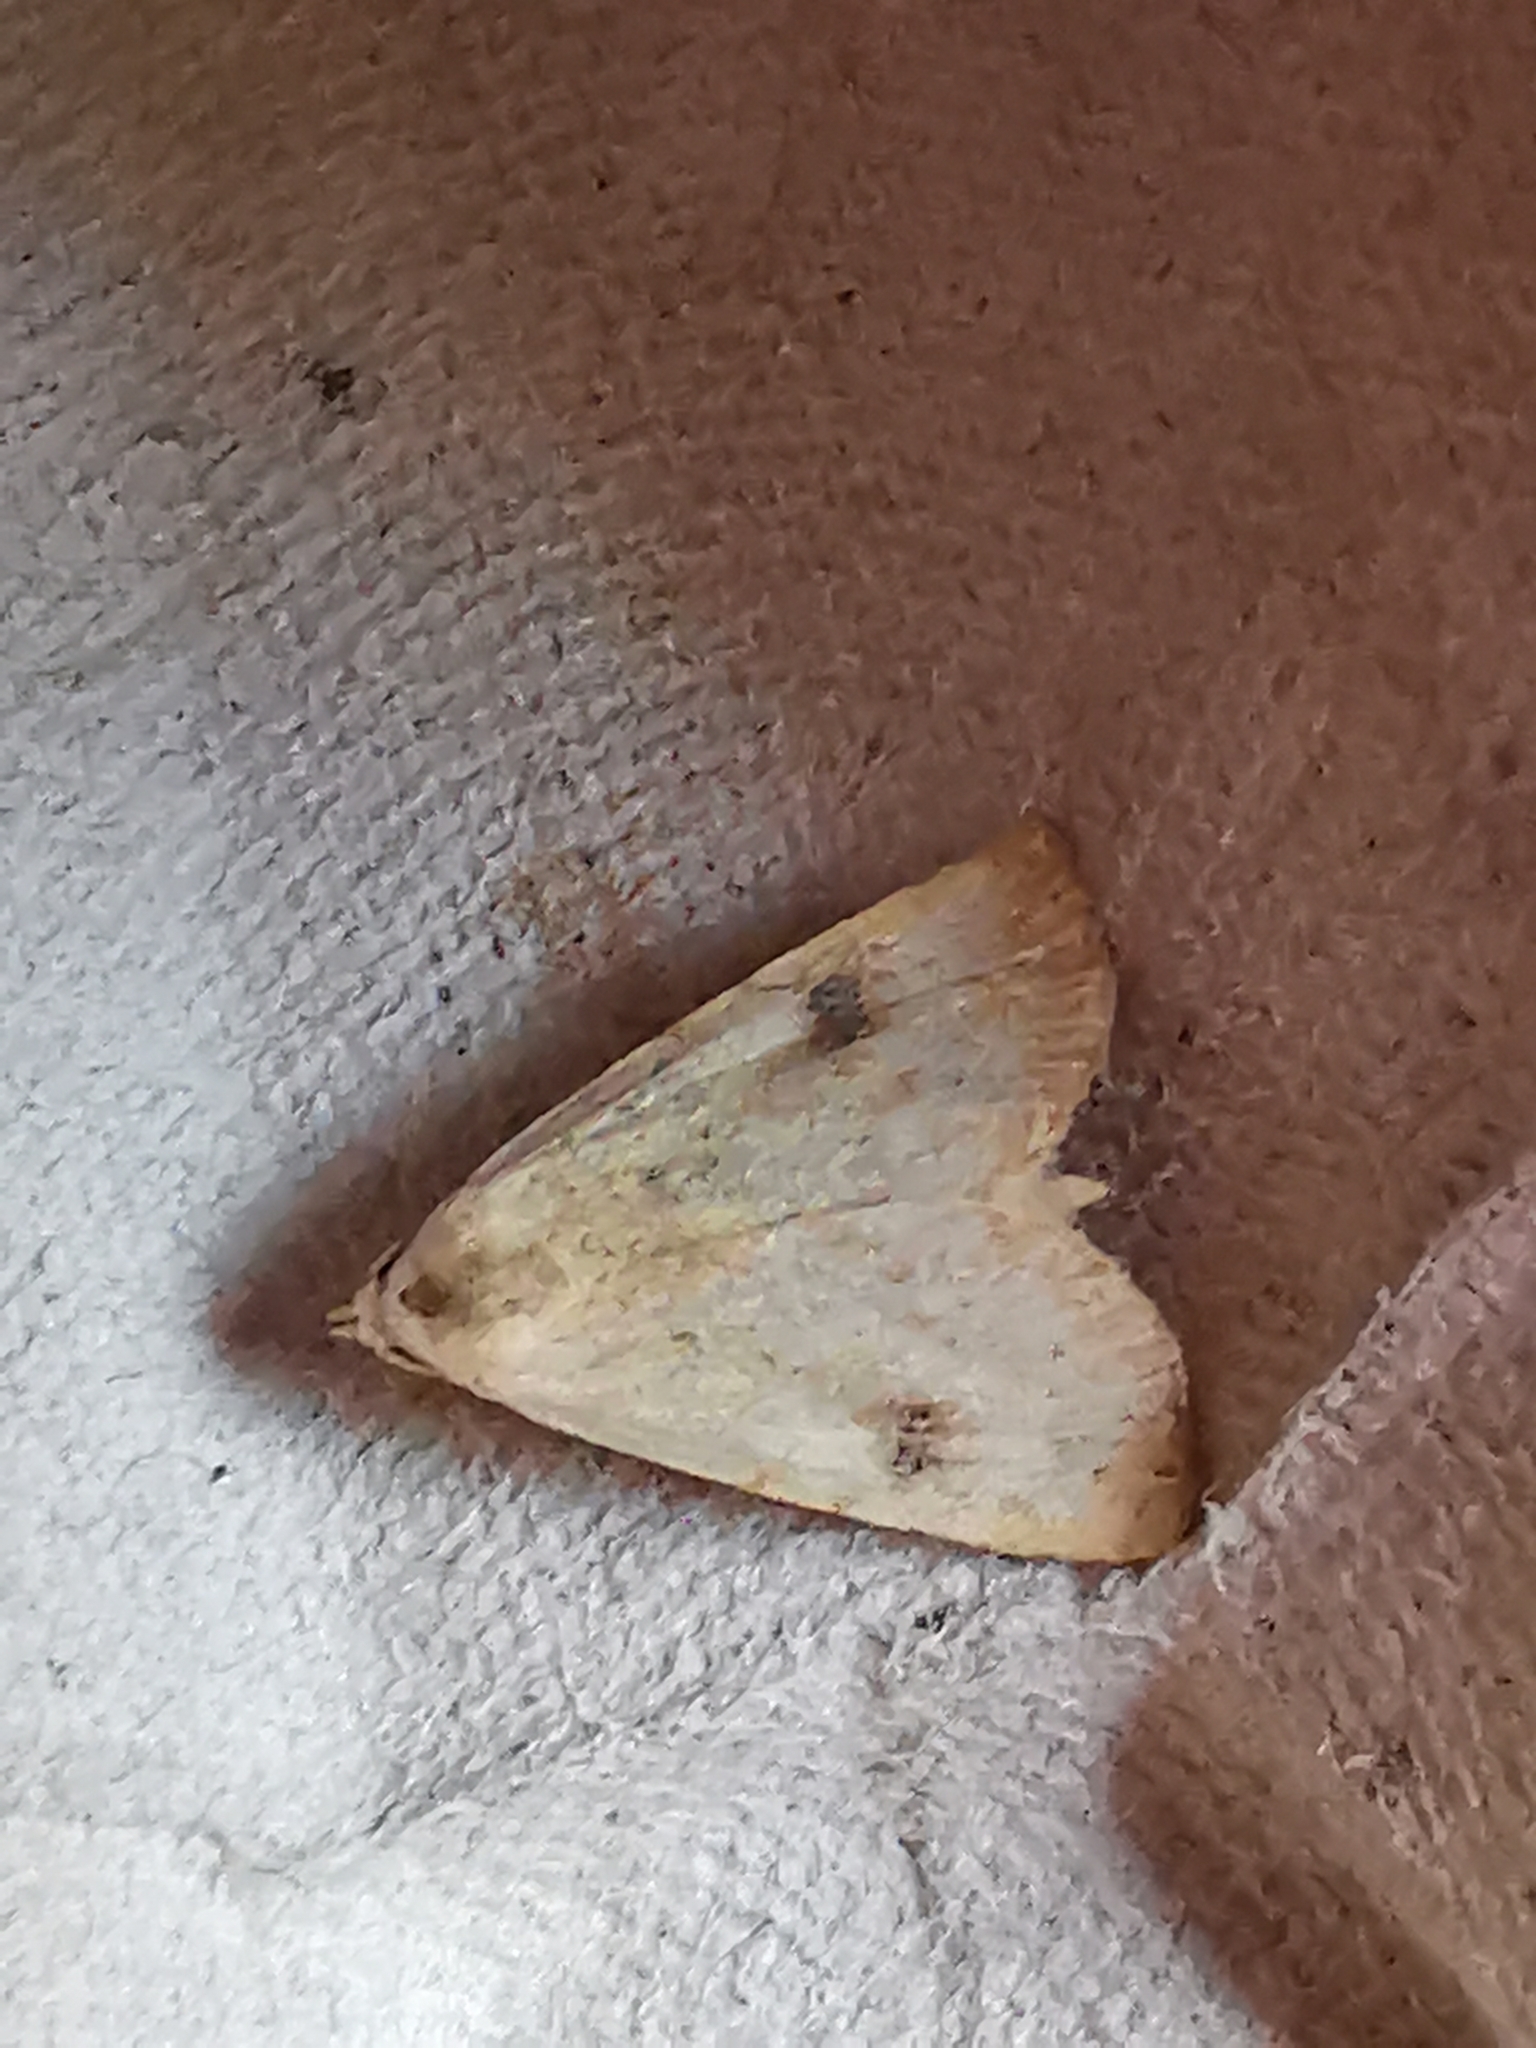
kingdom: Animalia
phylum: Arthropoda
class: Insecta
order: Lepidoptera
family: Erebidae
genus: Rivula
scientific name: Rivula sericealis
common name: Straw dot
